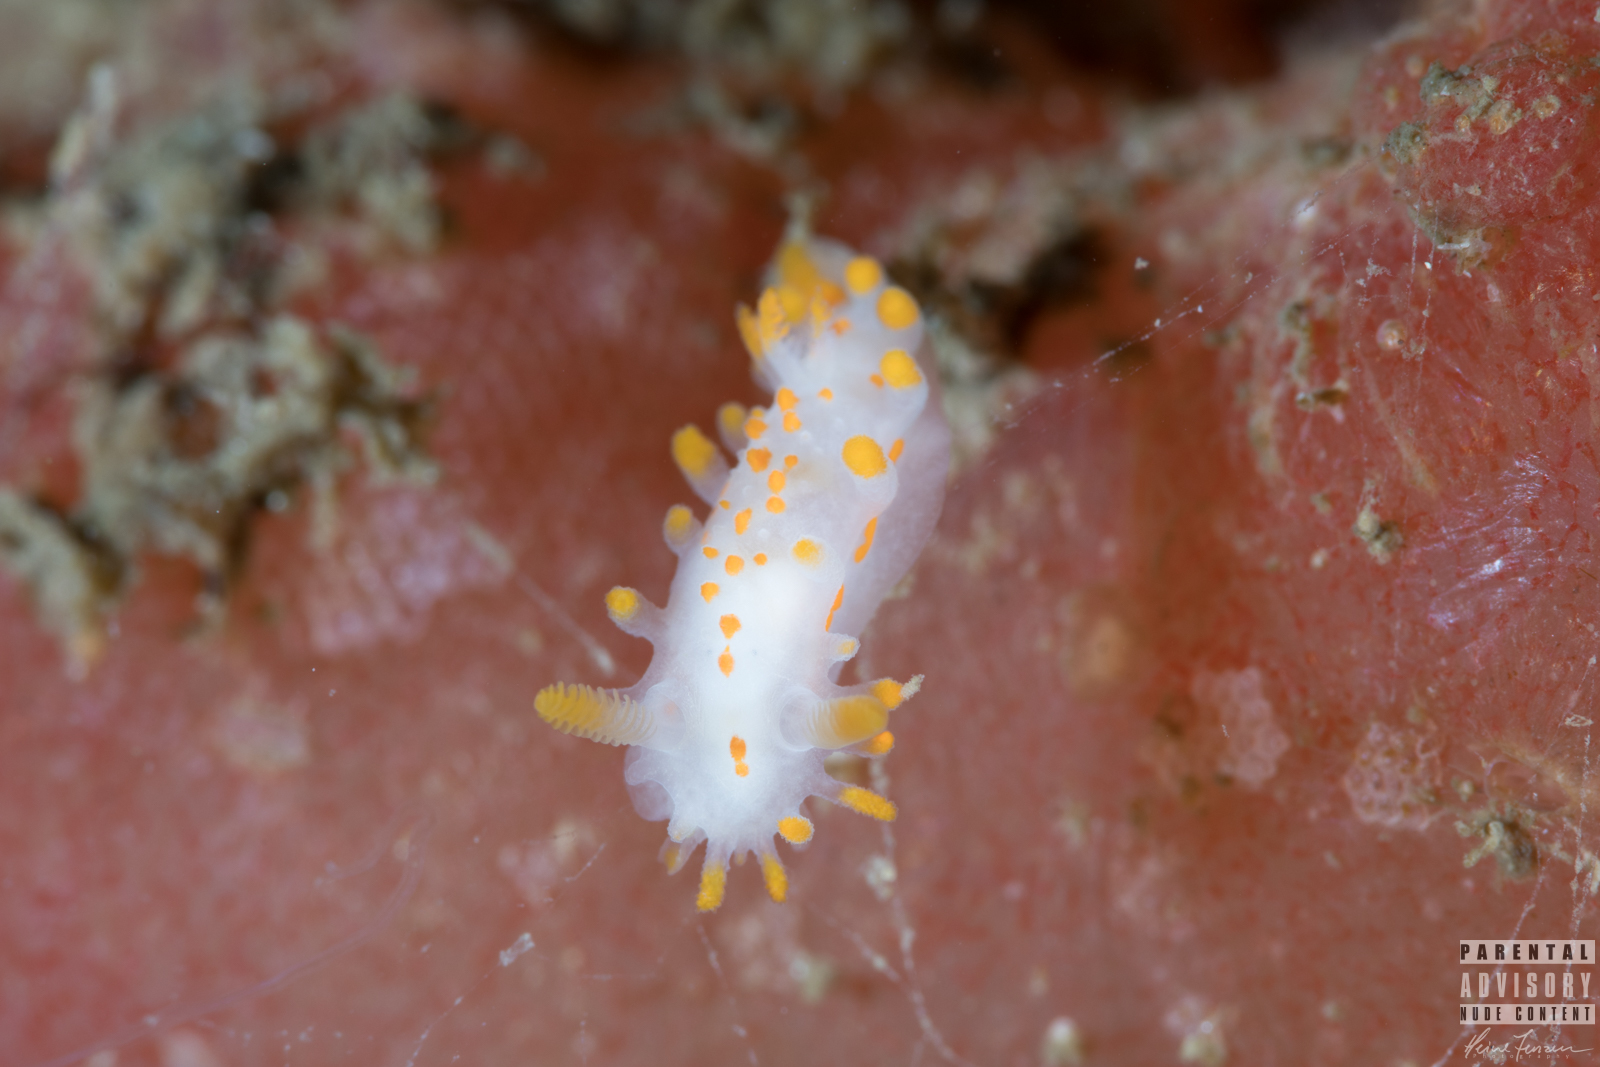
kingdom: Animalia
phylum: Mollusca
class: Gastropoda
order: Nudibranchia
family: Polyceridae
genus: Limacia
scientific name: Limacia clavigera
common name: Orange-clubbed sea slug
